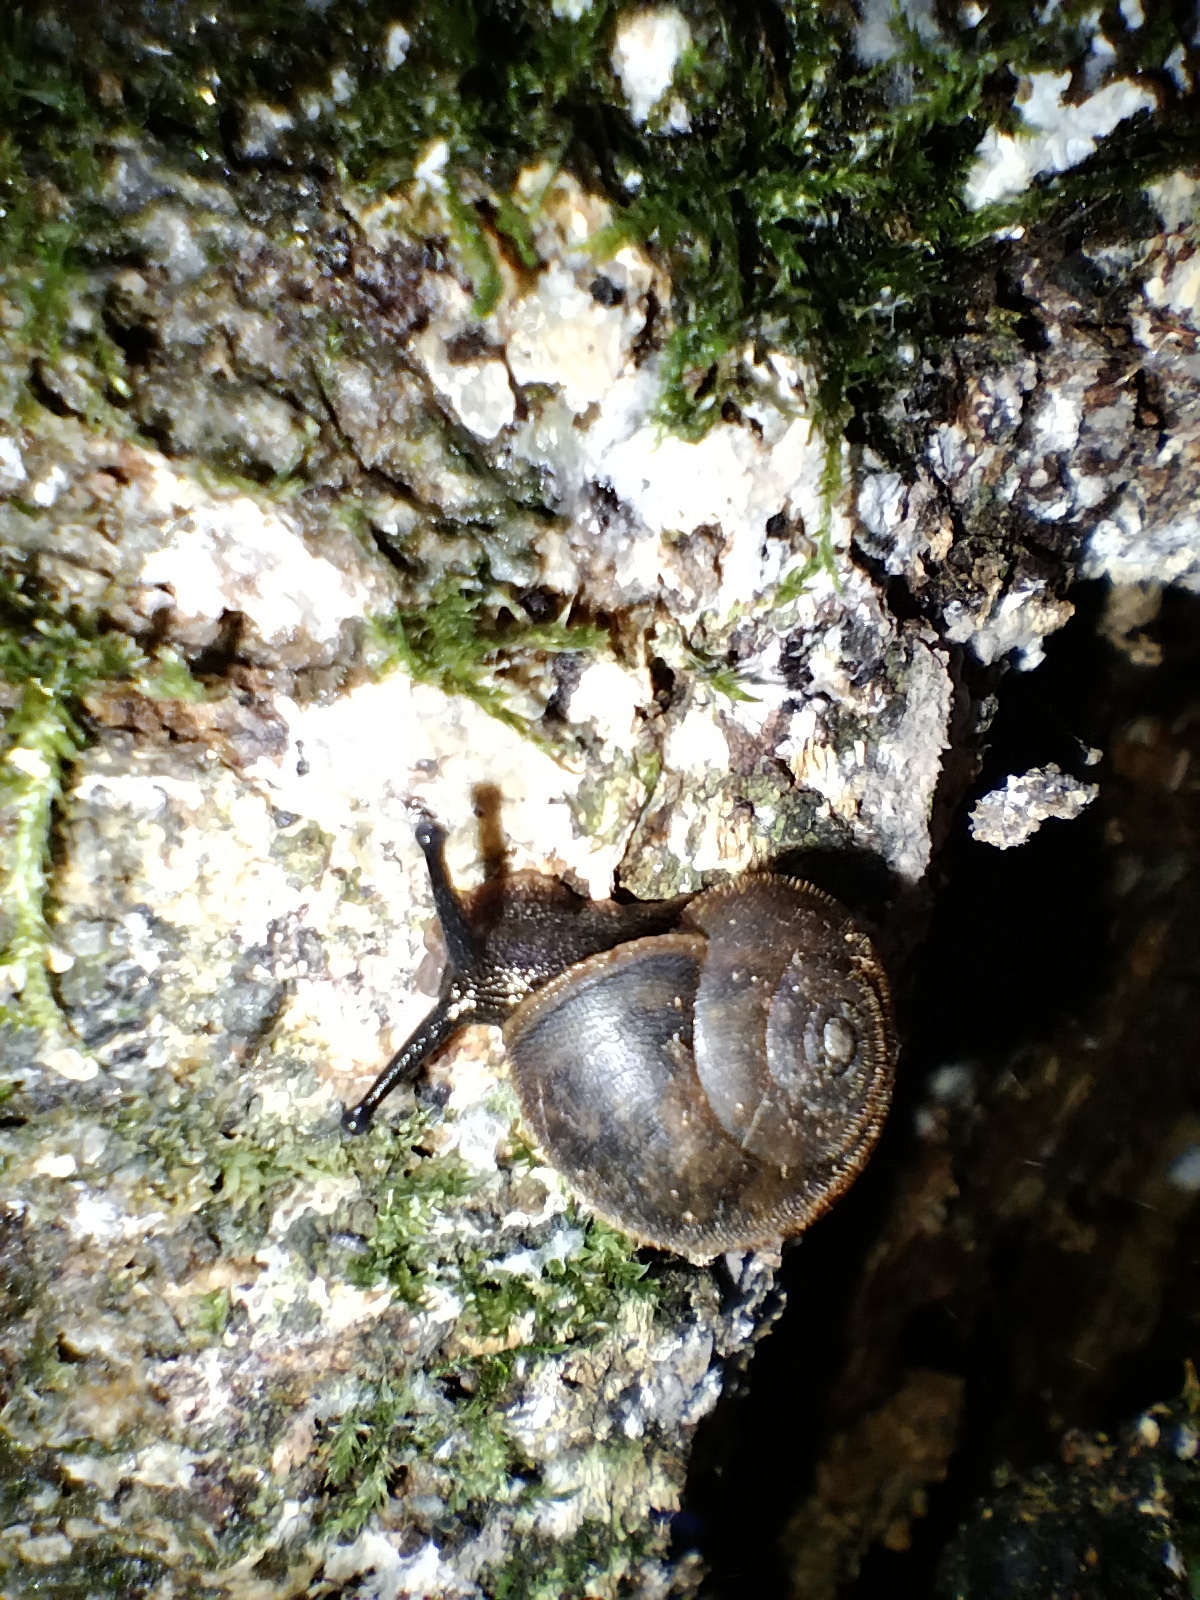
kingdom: Animalia
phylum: Mollusca
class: Gastropoda
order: Stylommatophora
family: Camaenidae
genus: Austrochloritis
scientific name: Austrochloritis wollemiensis
